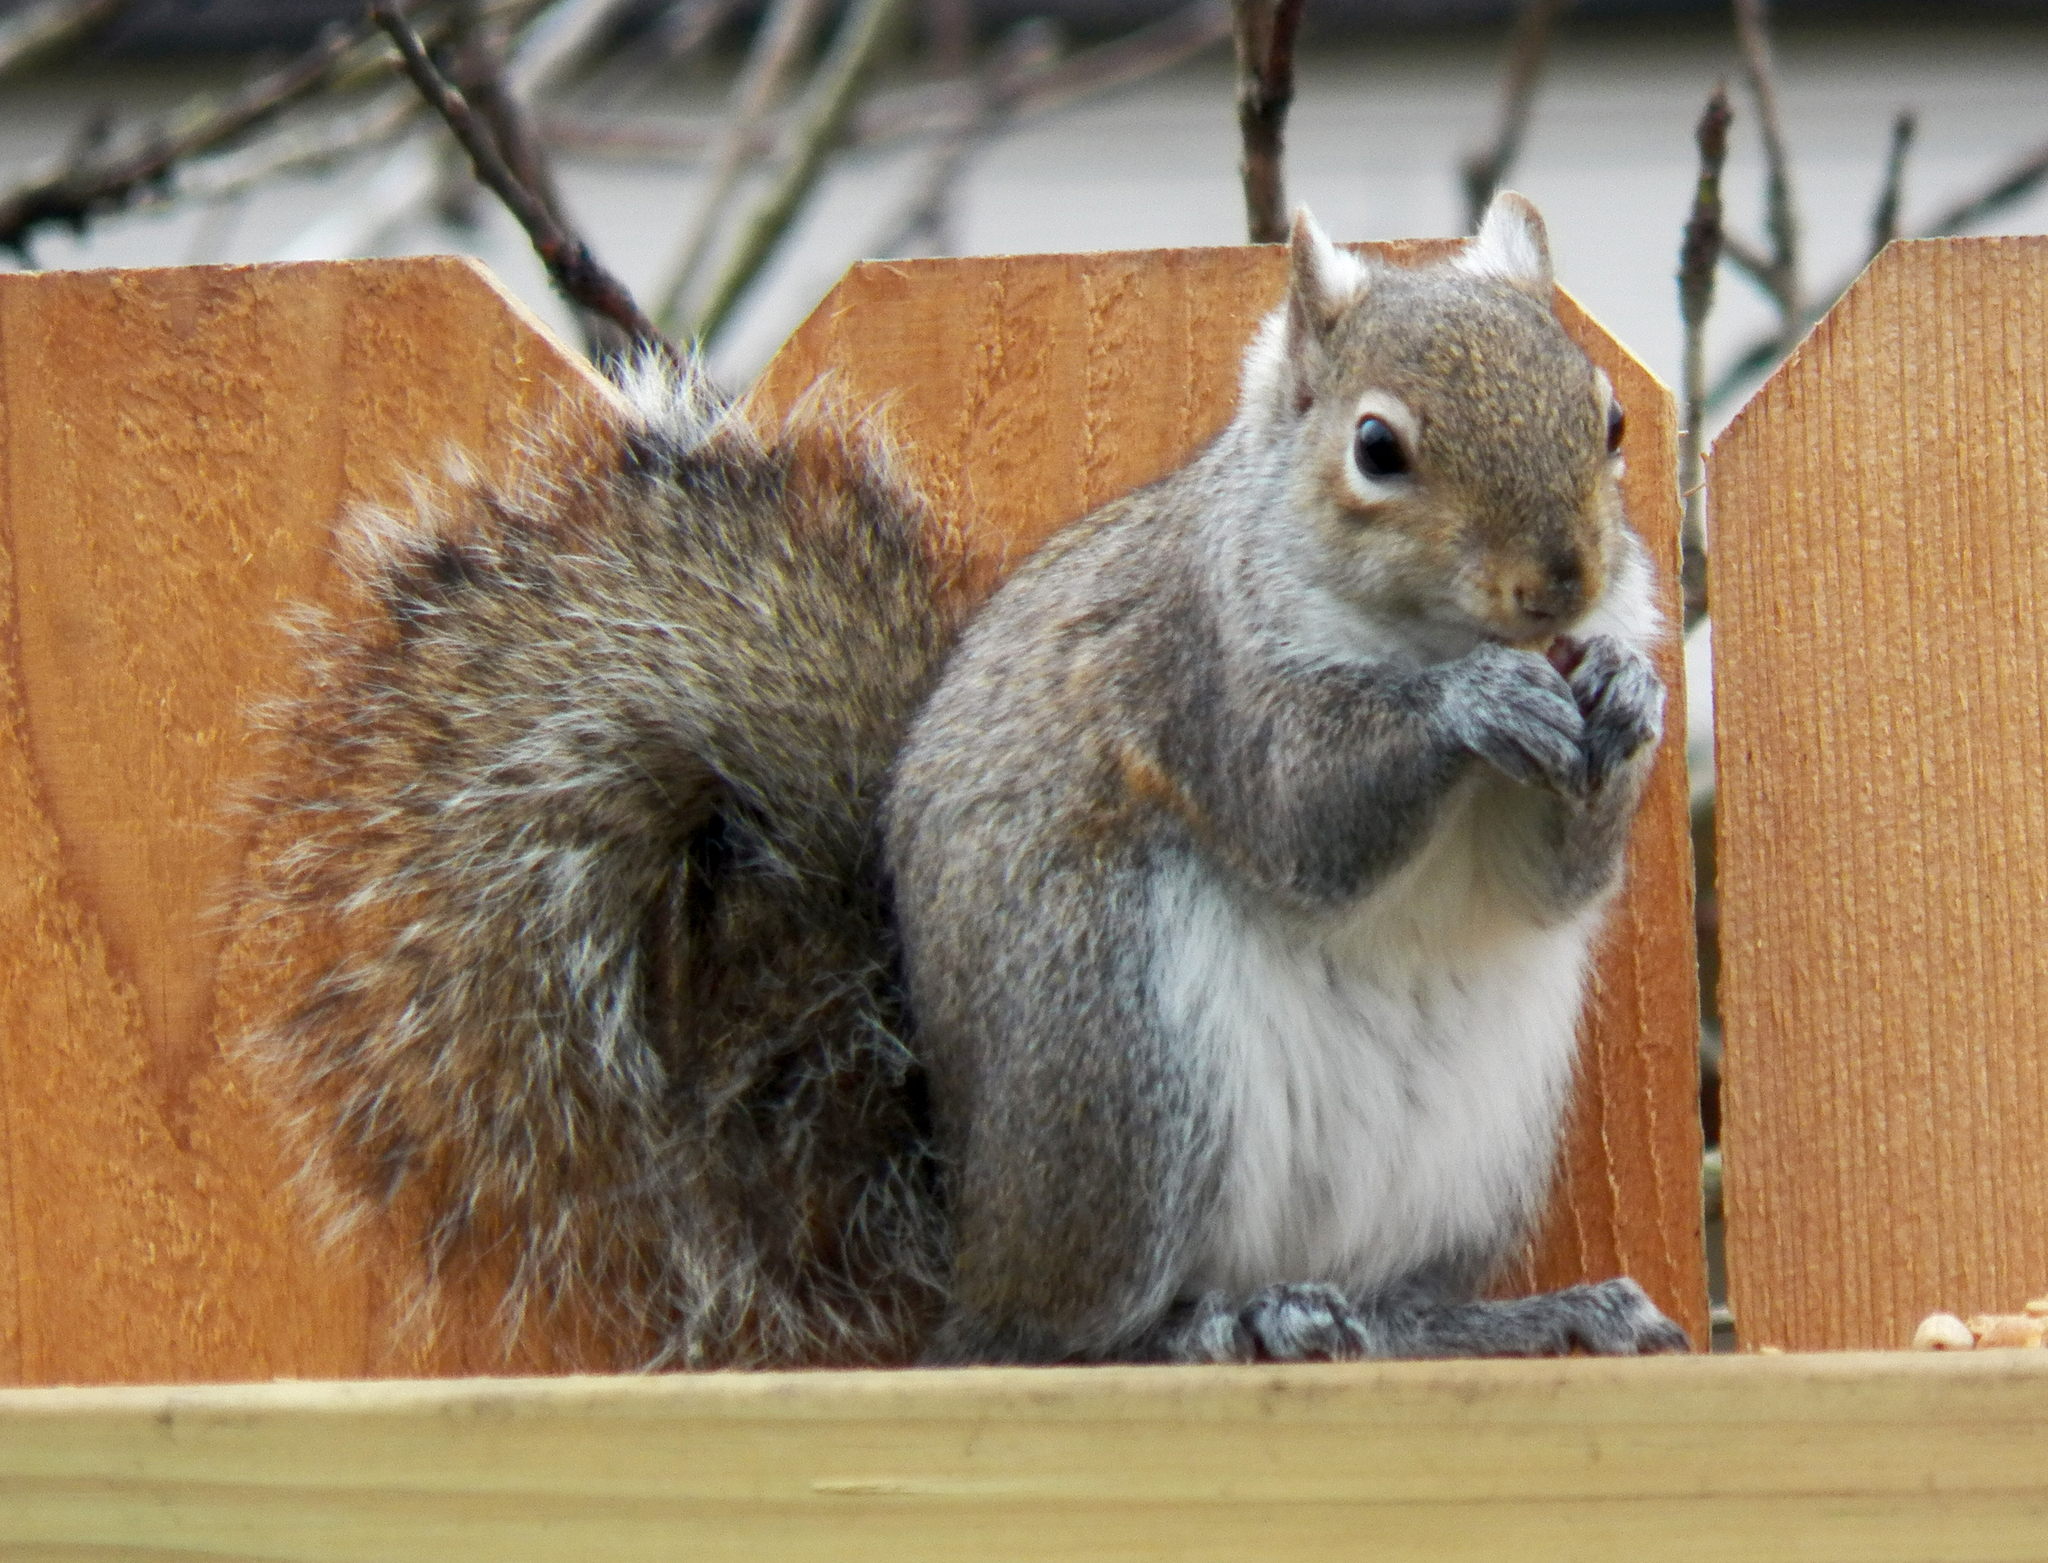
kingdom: Animalia
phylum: Chordata
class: Mammalia
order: Rodentia
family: Sciuridae
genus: Sciurus
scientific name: Sciurus carolinensis
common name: Eastern gray squirrel
